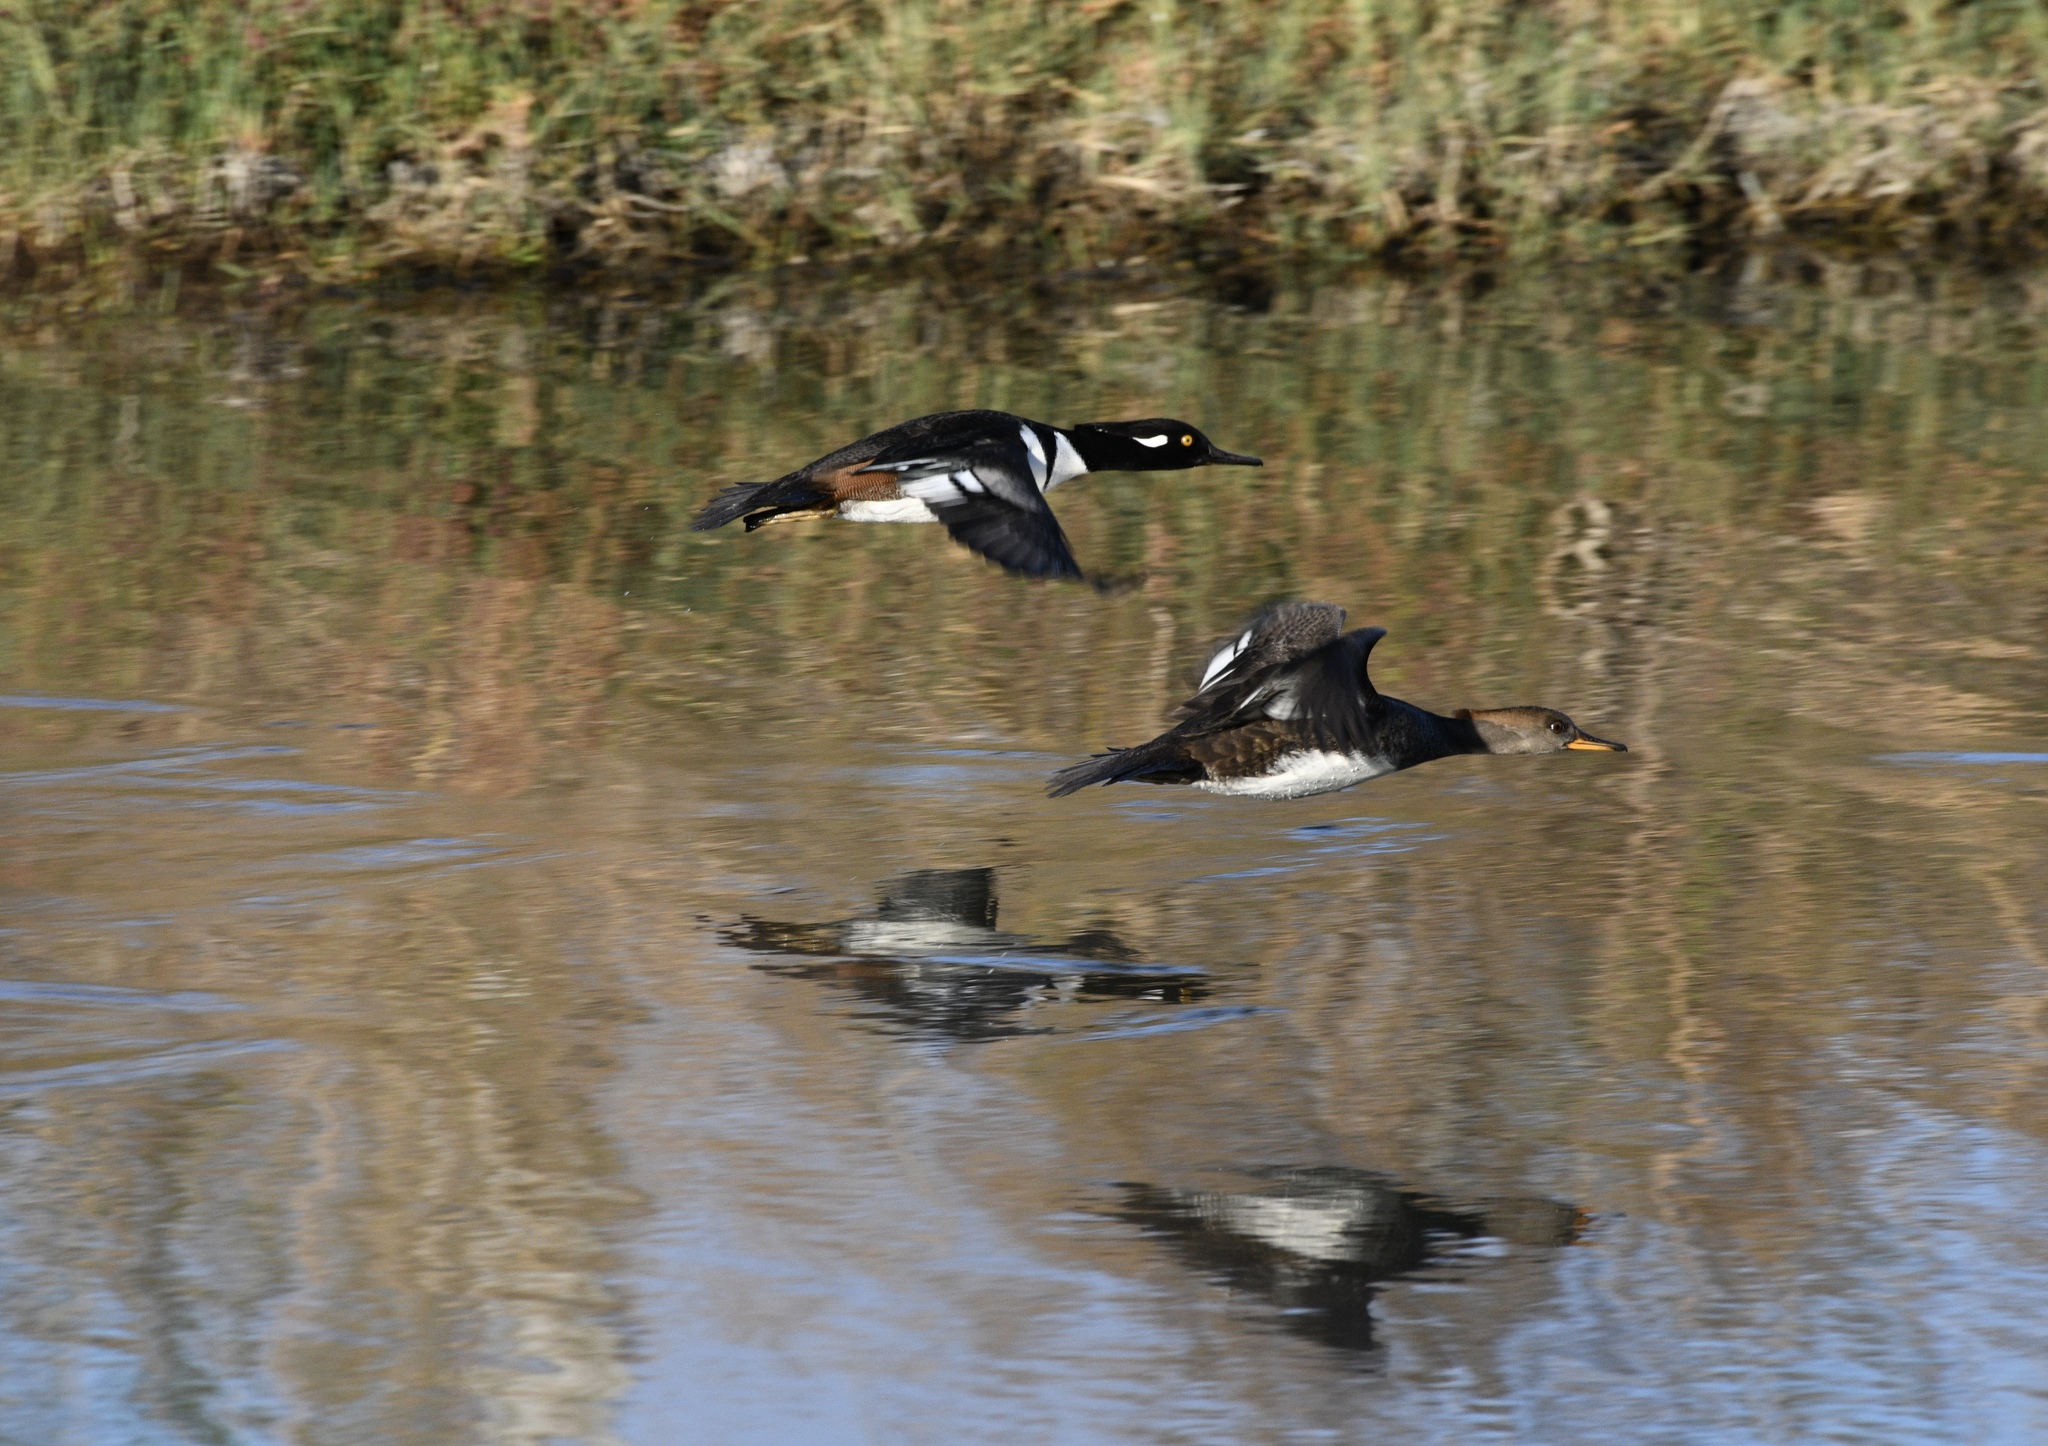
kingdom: Animalia
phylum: Chordata
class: Aves
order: Anseriformes
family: Anatidae
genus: Lophodytes
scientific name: Lophodytes cucullatus
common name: Hooded merganser
